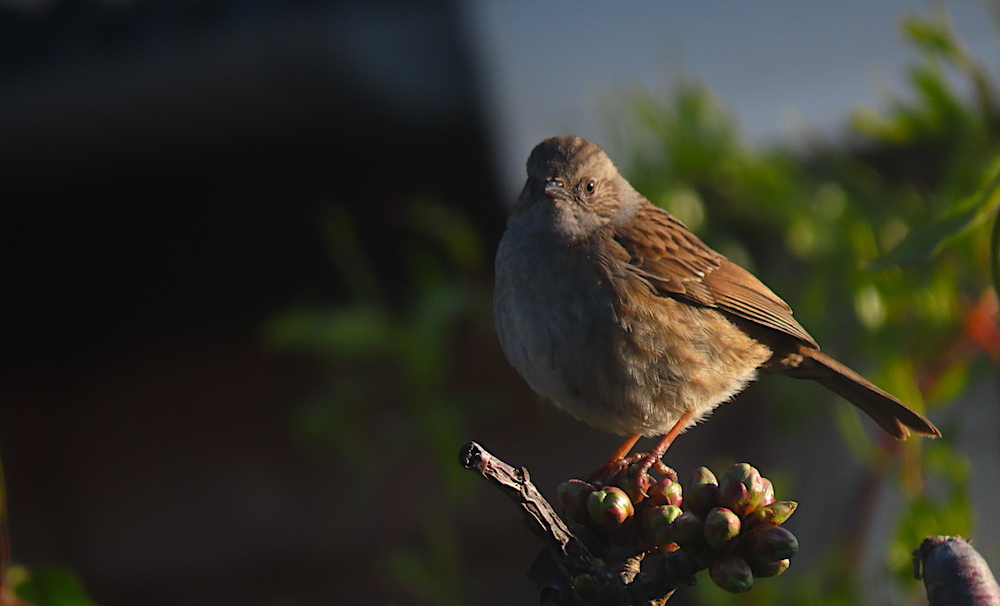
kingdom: Animalia
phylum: Chordata
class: Aves
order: Passeriformes
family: Prunellidae
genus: Prunella
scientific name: Prunella modularis
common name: Dunnock
